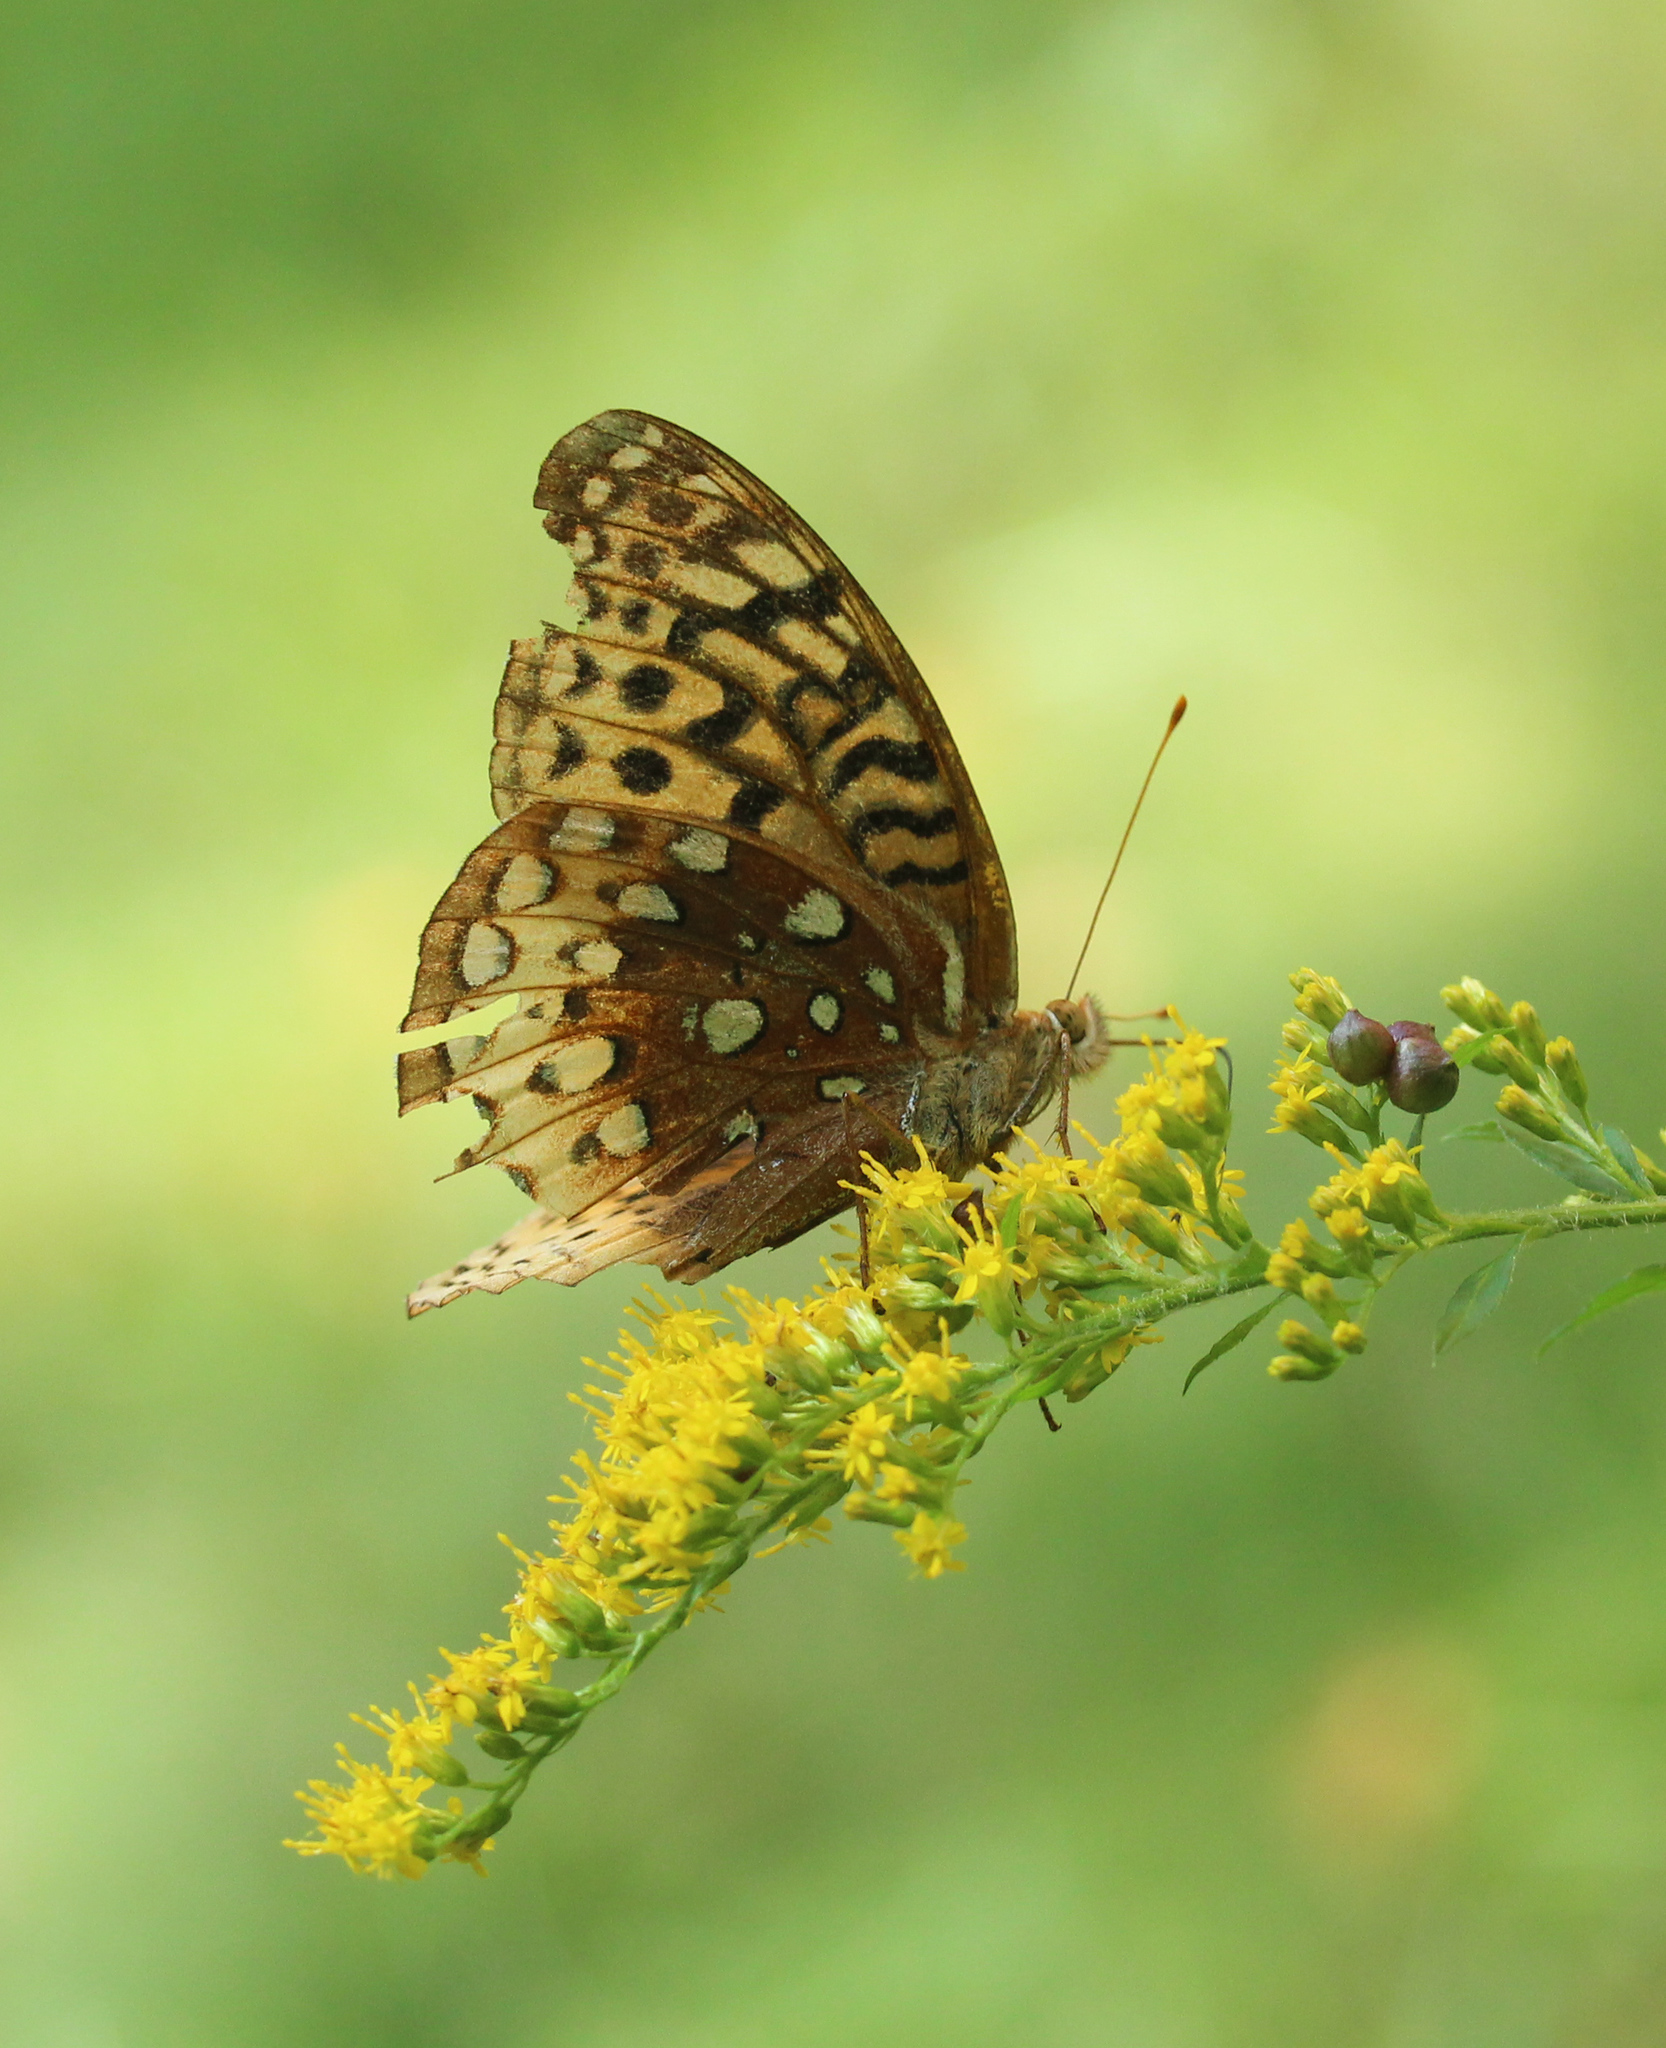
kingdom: Animalia
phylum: Arthropoda
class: Insecta
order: Lepidoptera
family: Nymphalidae
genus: Speyeria
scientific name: Speyeria cybele
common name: Great spangled fritillary
